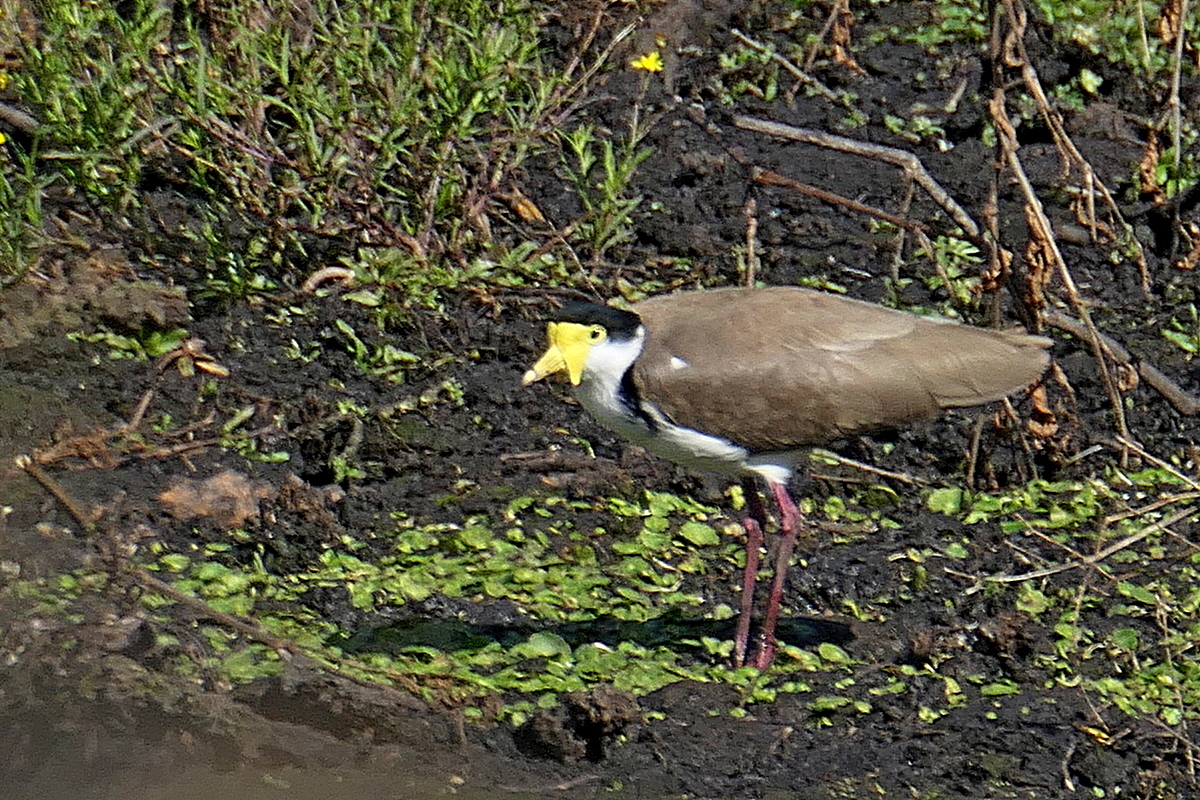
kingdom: Animalia
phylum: Chordata
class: Aves
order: Charadriiformes
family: Charadriidae
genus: Vanellus
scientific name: Vanellus miles
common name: Masked lapwing
